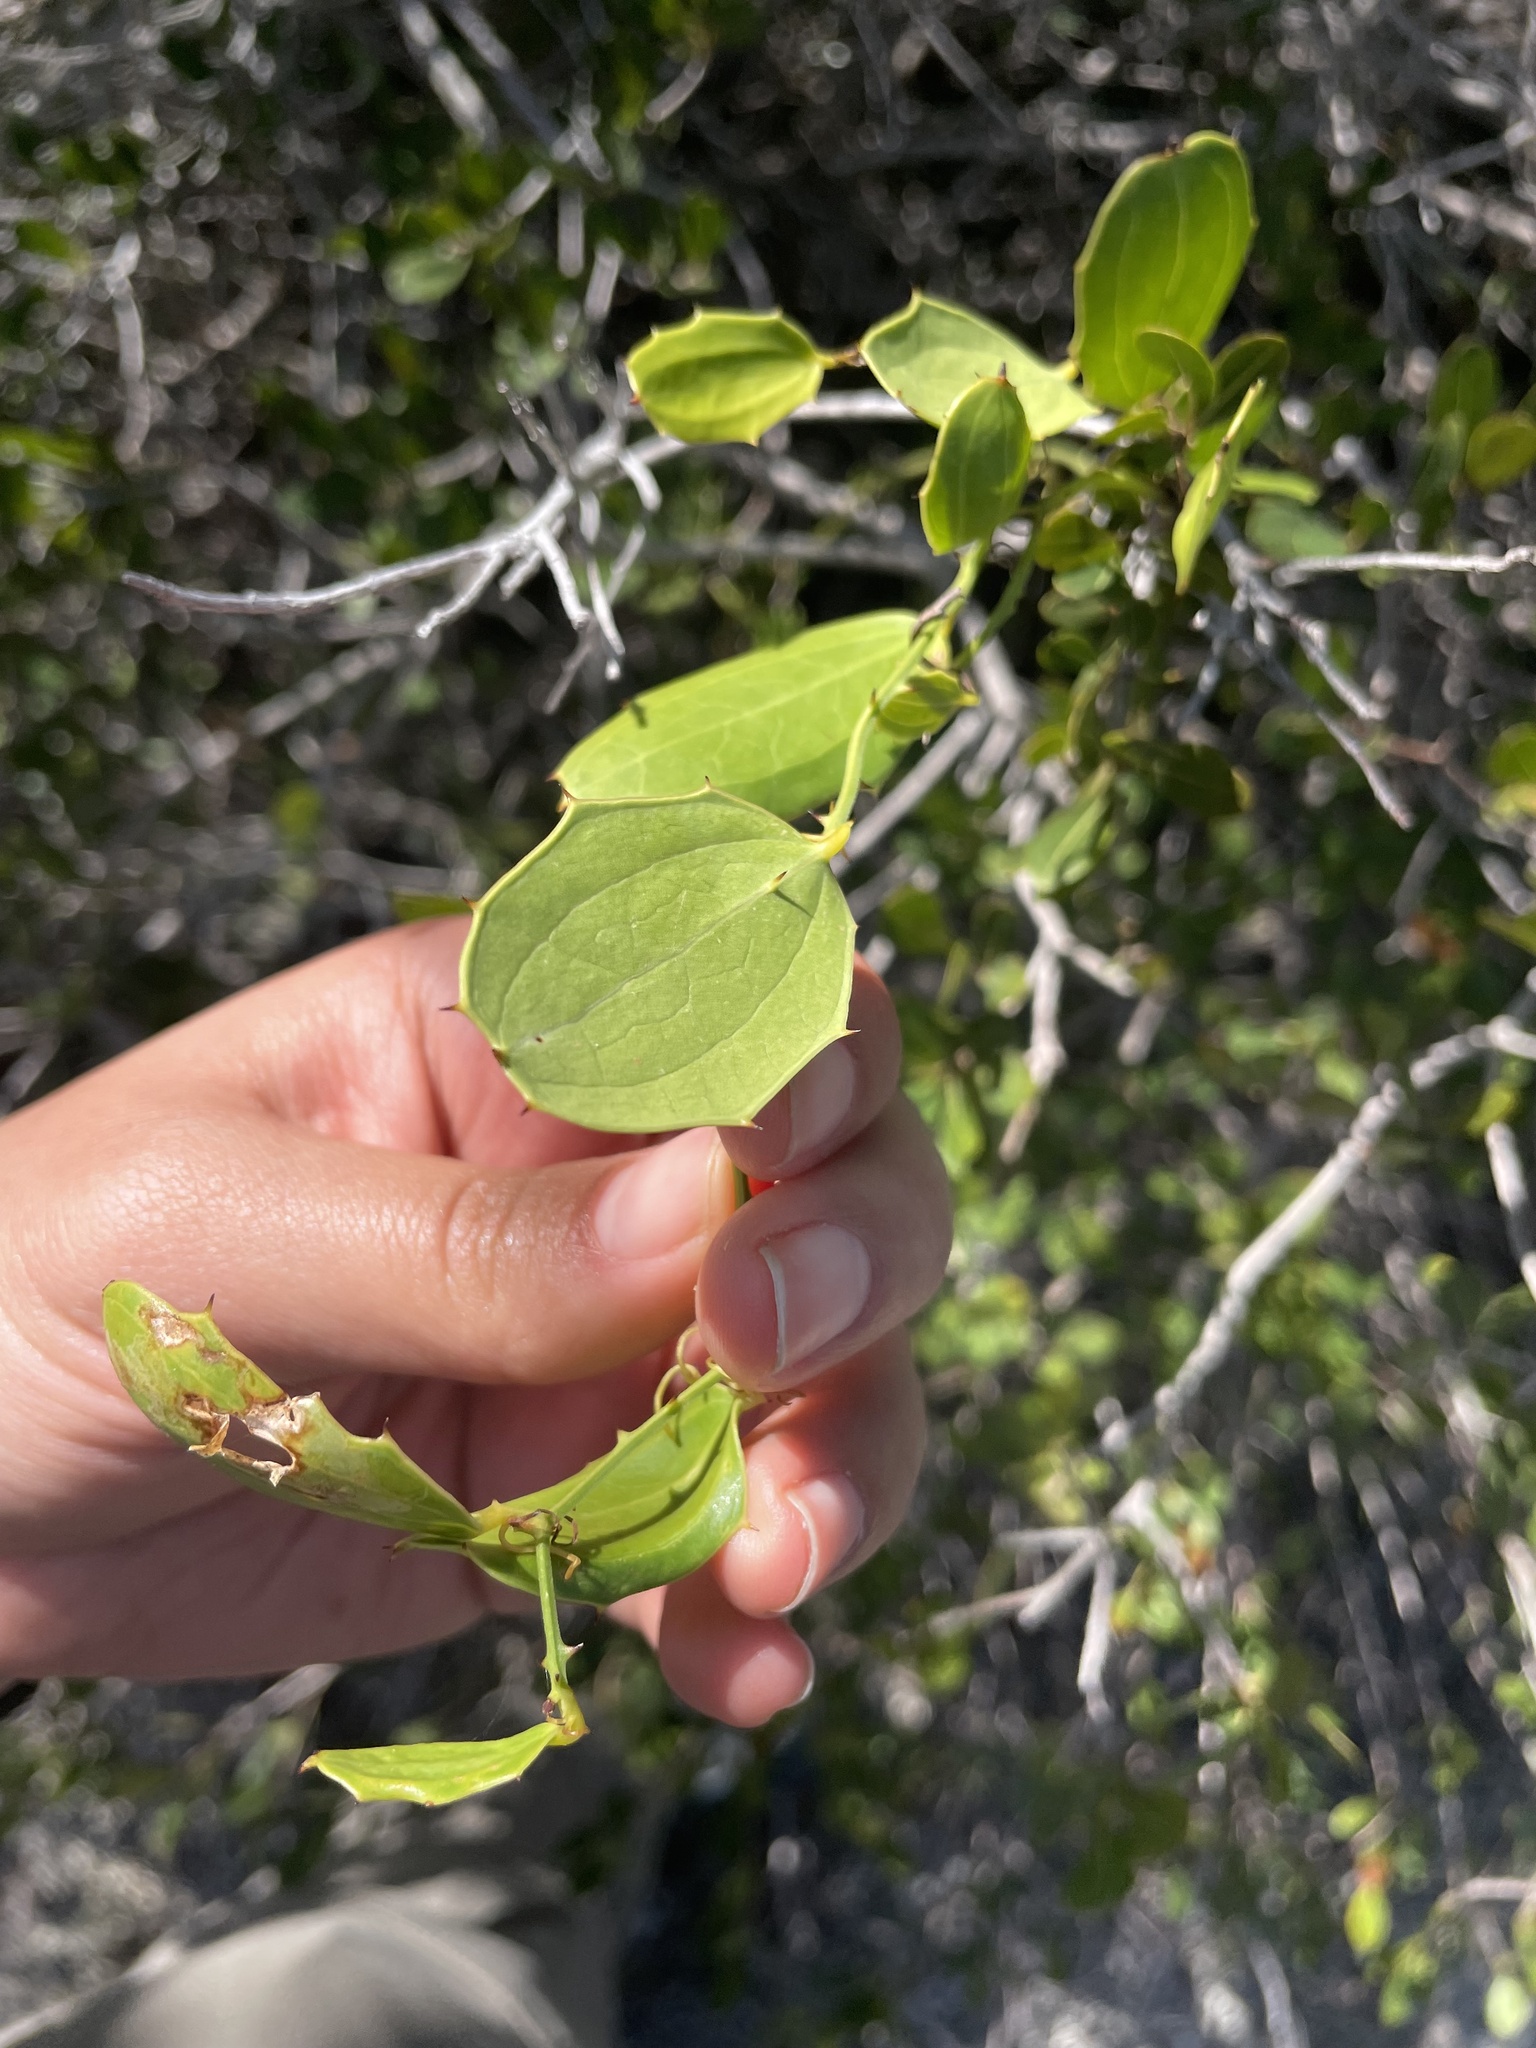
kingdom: Plantae
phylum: Tracheophyta
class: Liliopsida
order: Liliales
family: Smilacaceae
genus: Smilax
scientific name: Smilax havanensis
